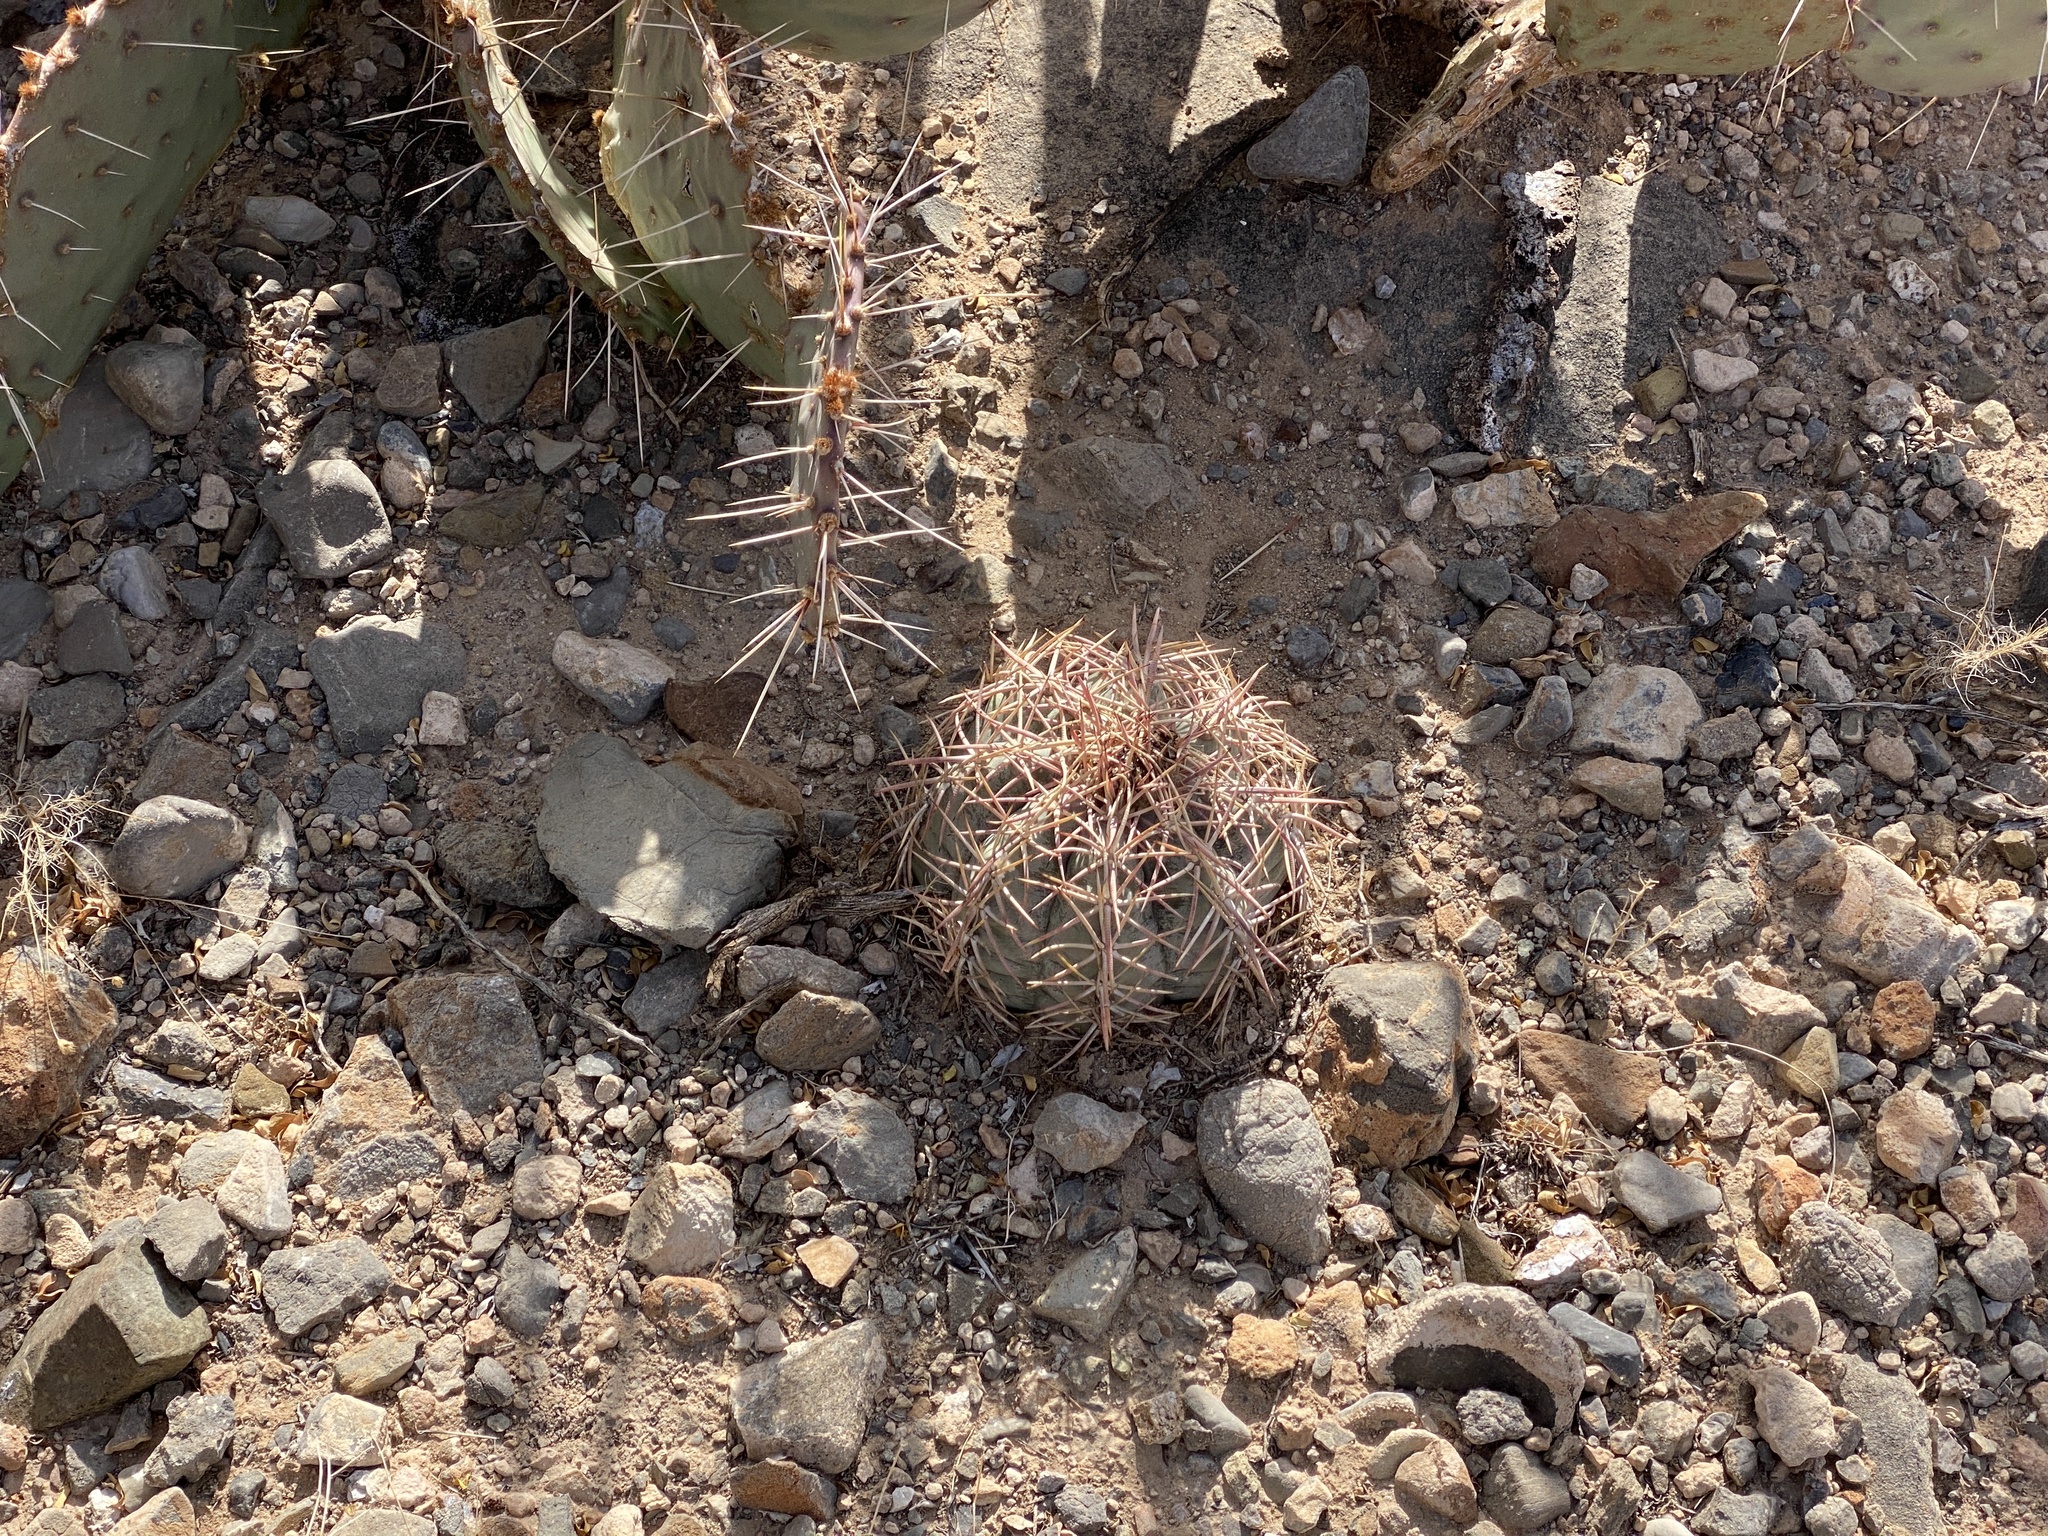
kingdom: Plantae
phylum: Tracheophyta
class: Magnoliopsida
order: Caryophyllales
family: Cactaceae
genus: Echinocactus
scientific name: Echinocactus horizonthalonius
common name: Devilshead
